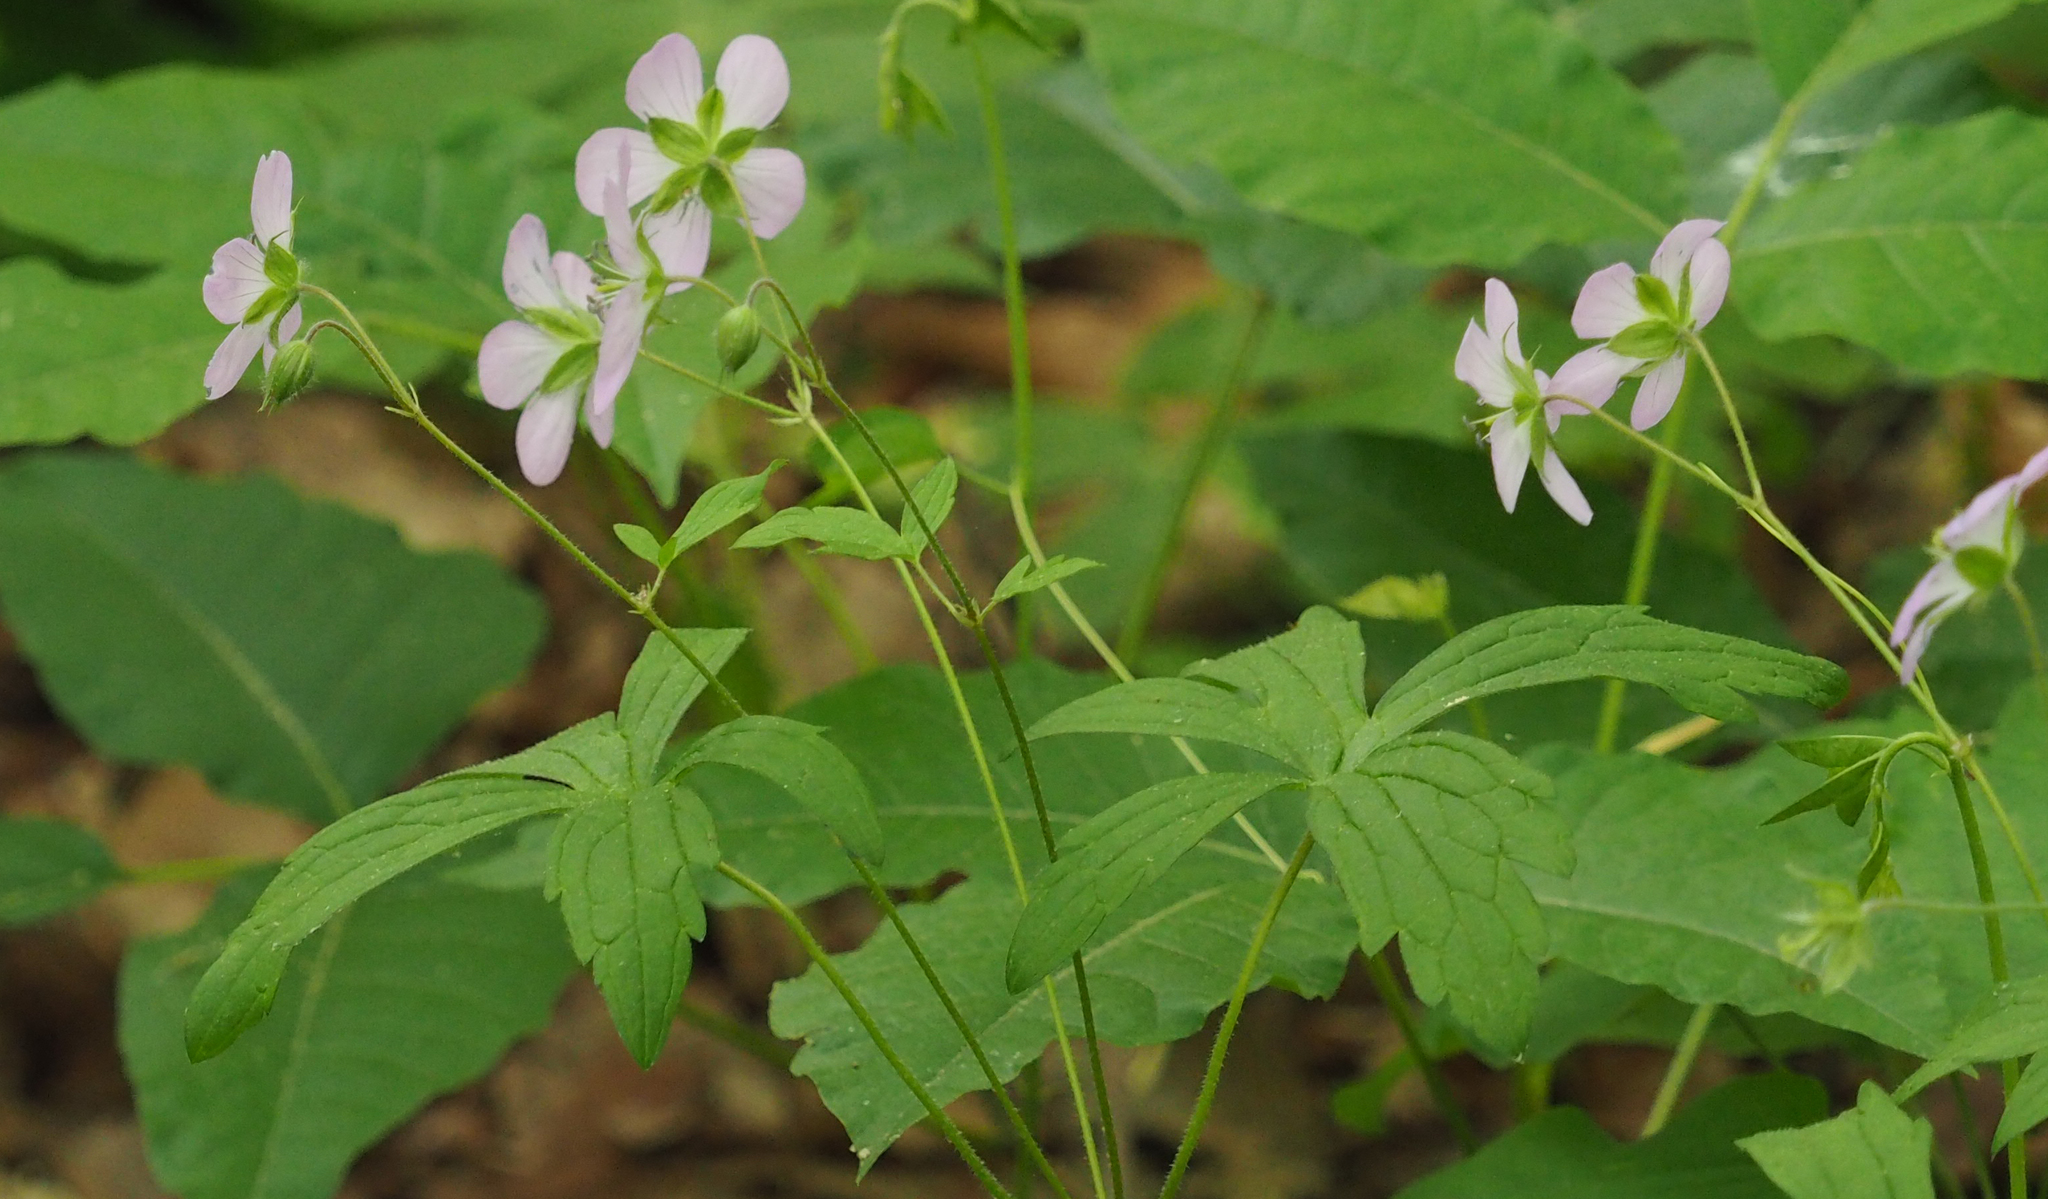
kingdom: Plantae
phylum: Tracheophyta
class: Magnoliopsida
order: Geraniales
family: Geraniaceae
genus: Geranium
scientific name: Geranium maculatum
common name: Spotted geranium
